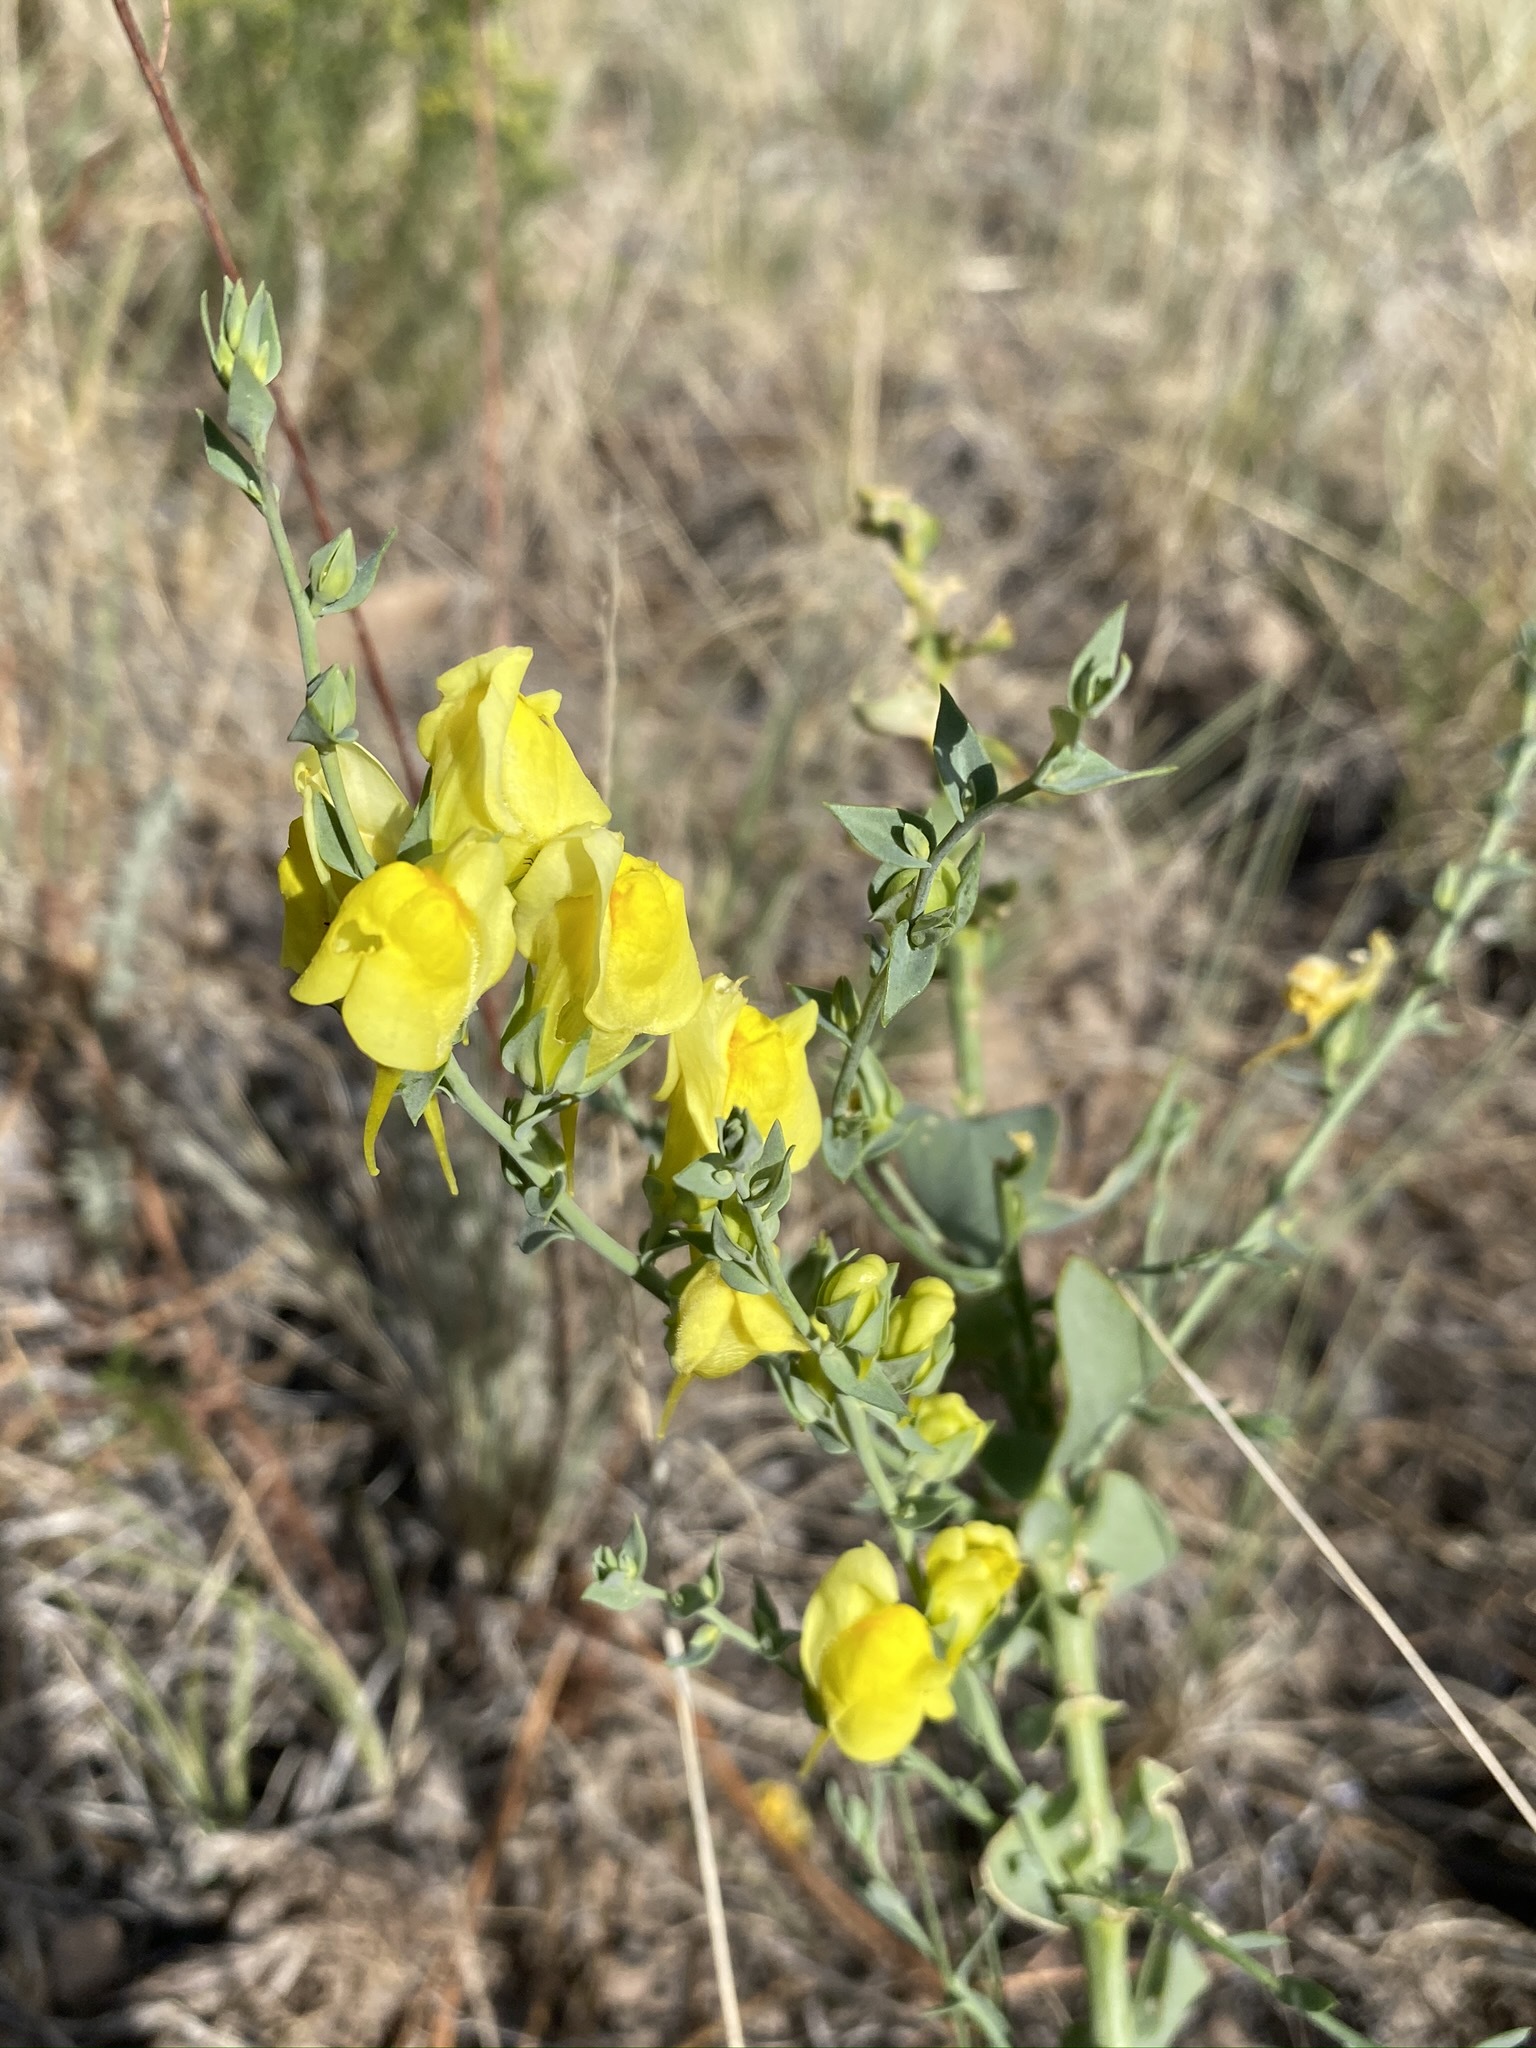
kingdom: Plantae
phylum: Tracheophyta
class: Magnoliopsida
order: Lamiales
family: Plantaginaceae
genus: Linaria
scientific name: Linaria dalmatica
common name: Dalmatian toadflax
